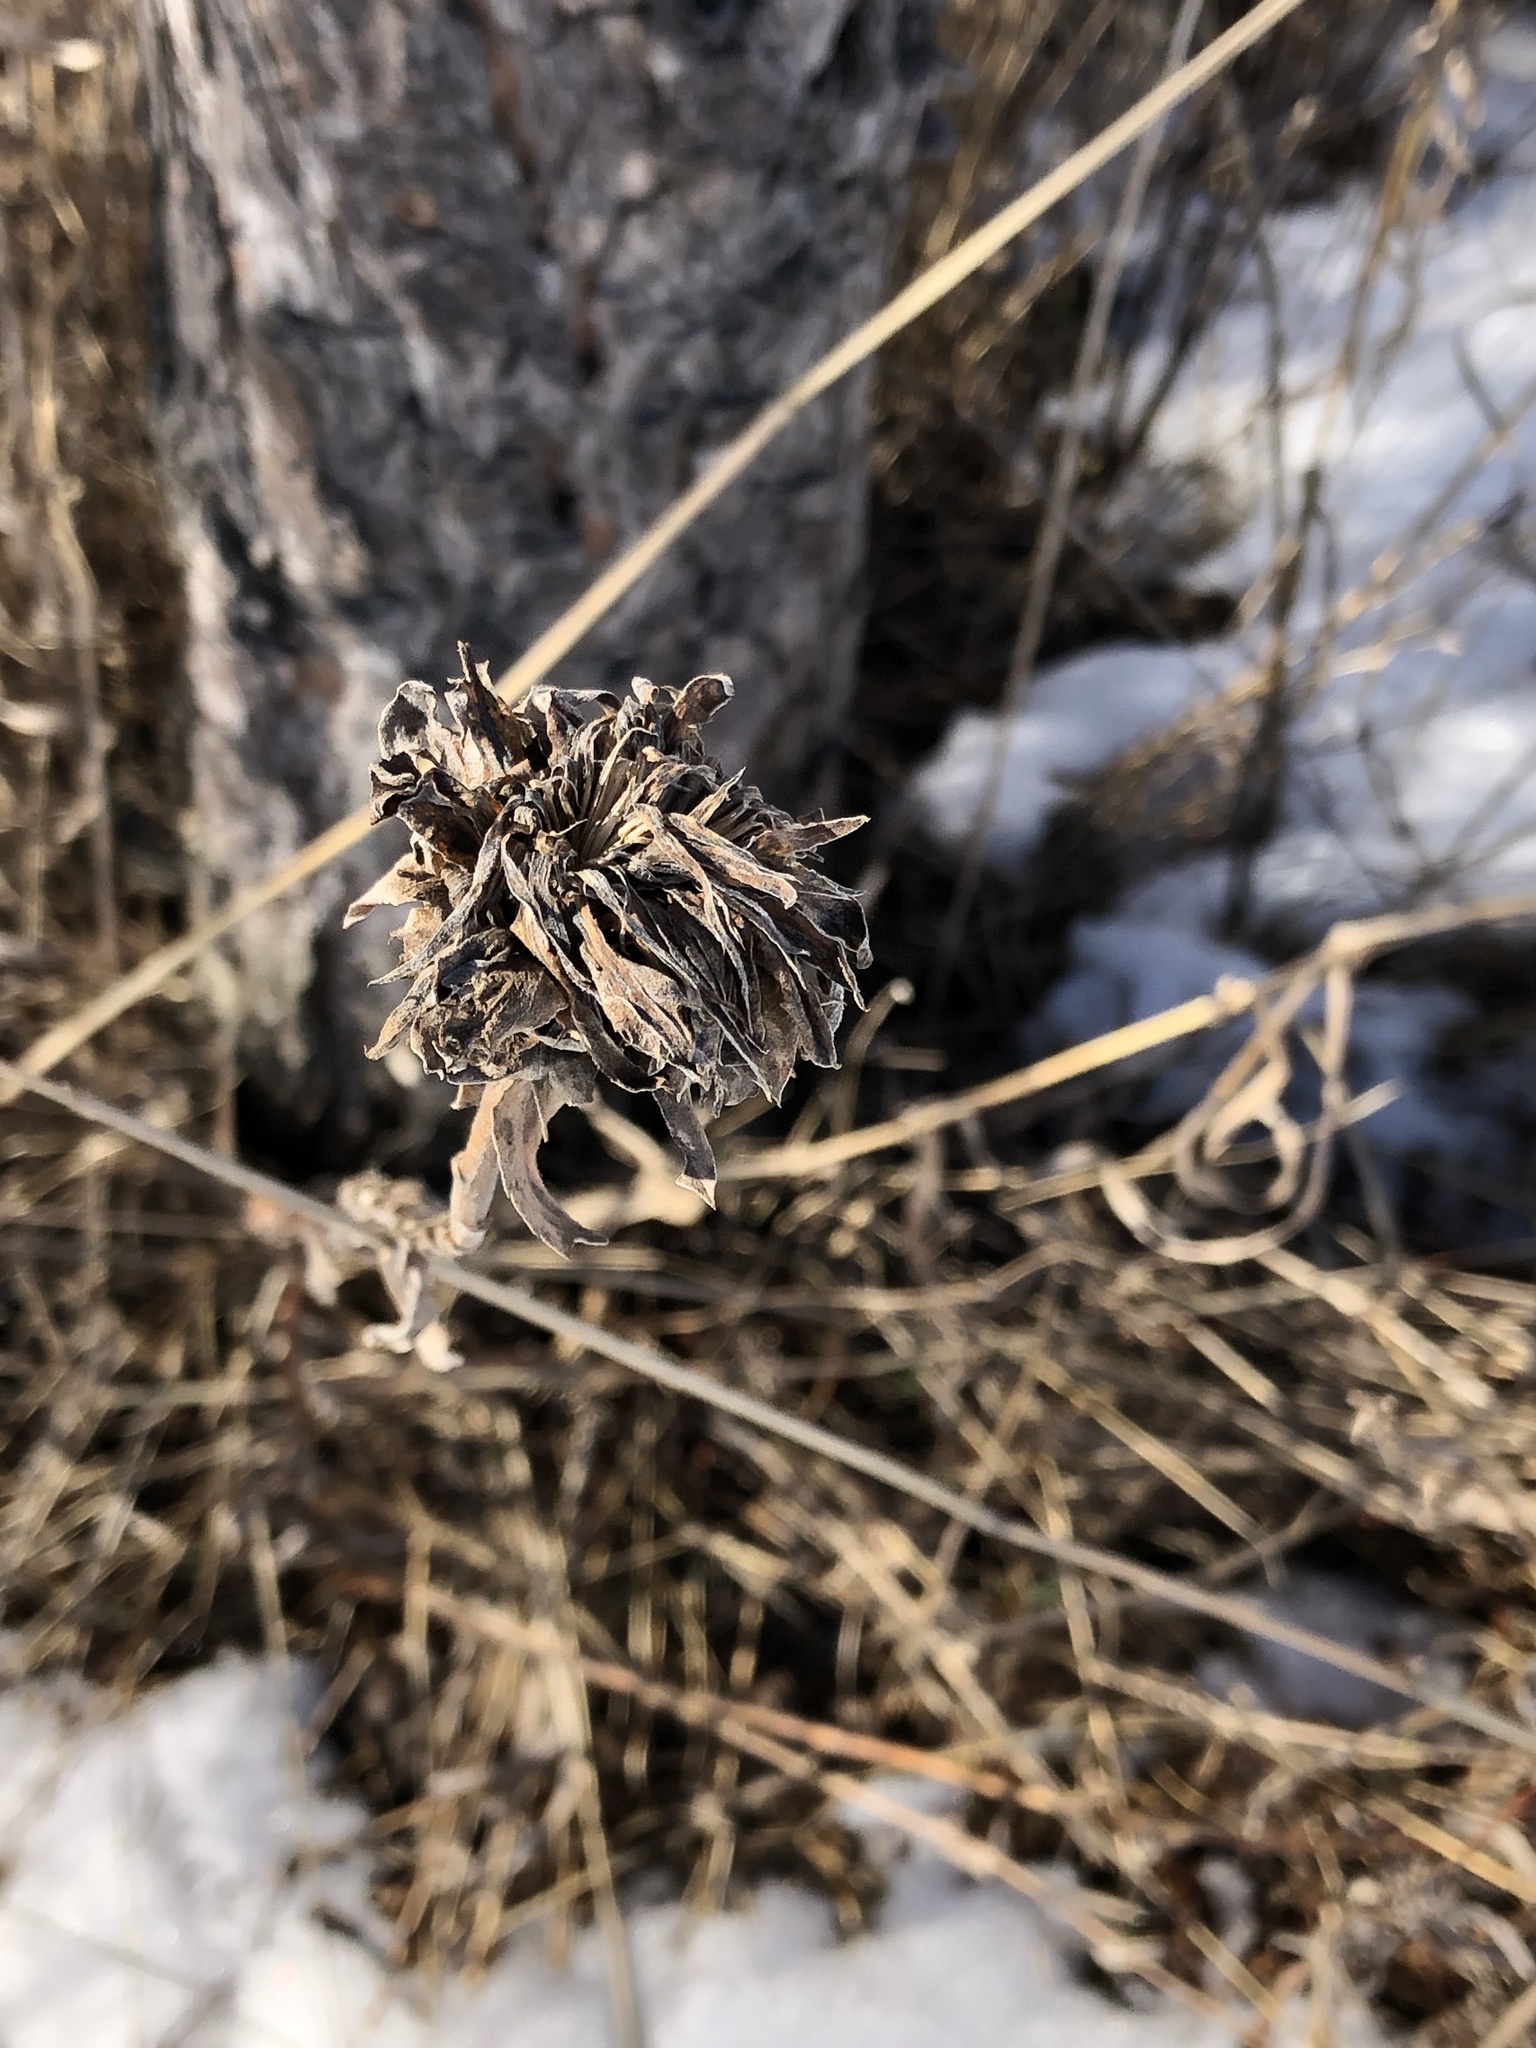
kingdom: Animalia
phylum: Arthropoda
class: Insecta
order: Diptera
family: Cecidomyiidae
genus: Rhopalomyia
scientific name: Rhopalomyia solidaginis
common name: Goldenrod bunch gall midge
